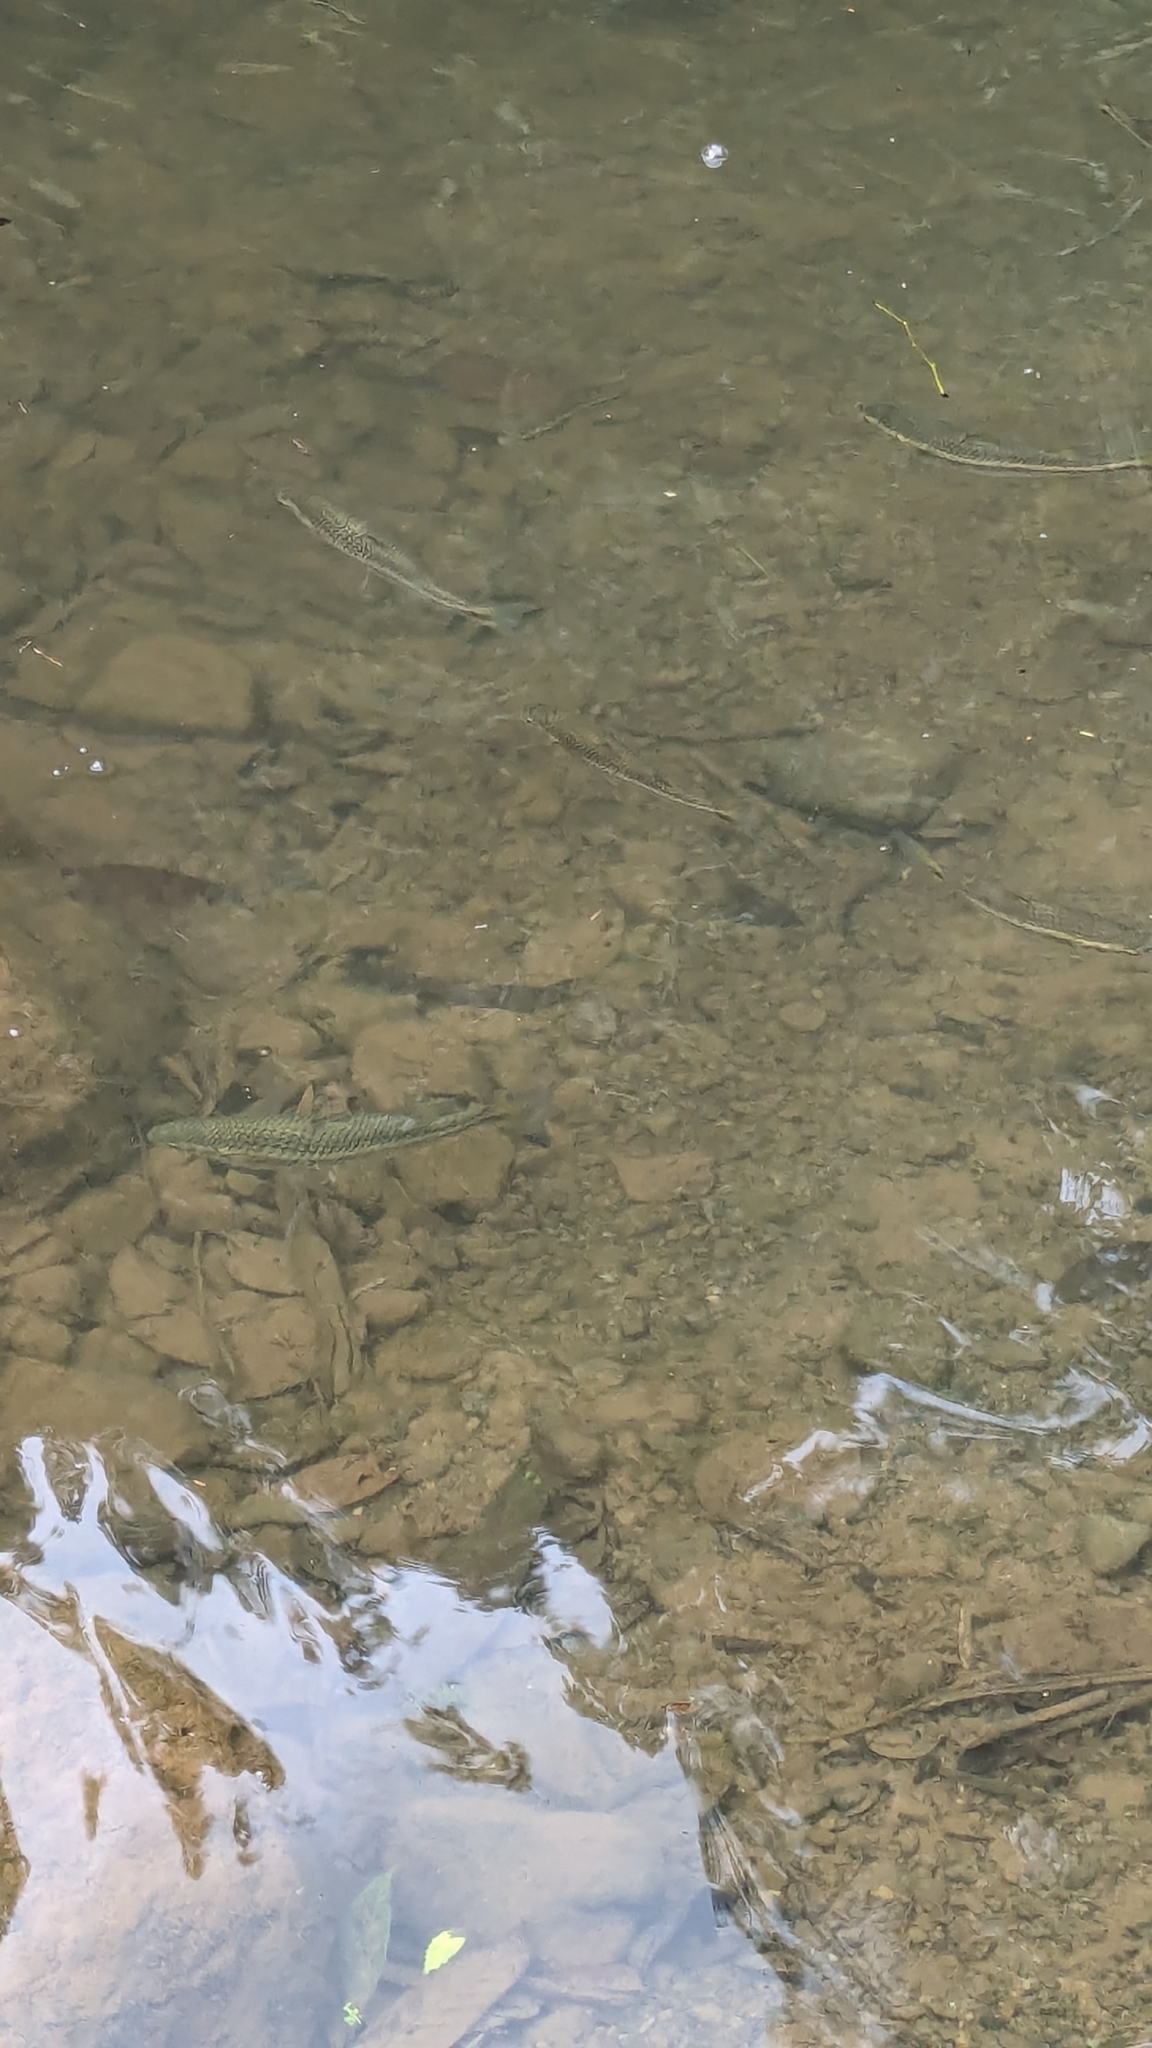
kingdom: Animalia
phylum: Chordata
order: Mugiliformes
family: Mugilidae
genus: Dajaus
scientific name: Dajaus monticola
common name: Mountain mullet
